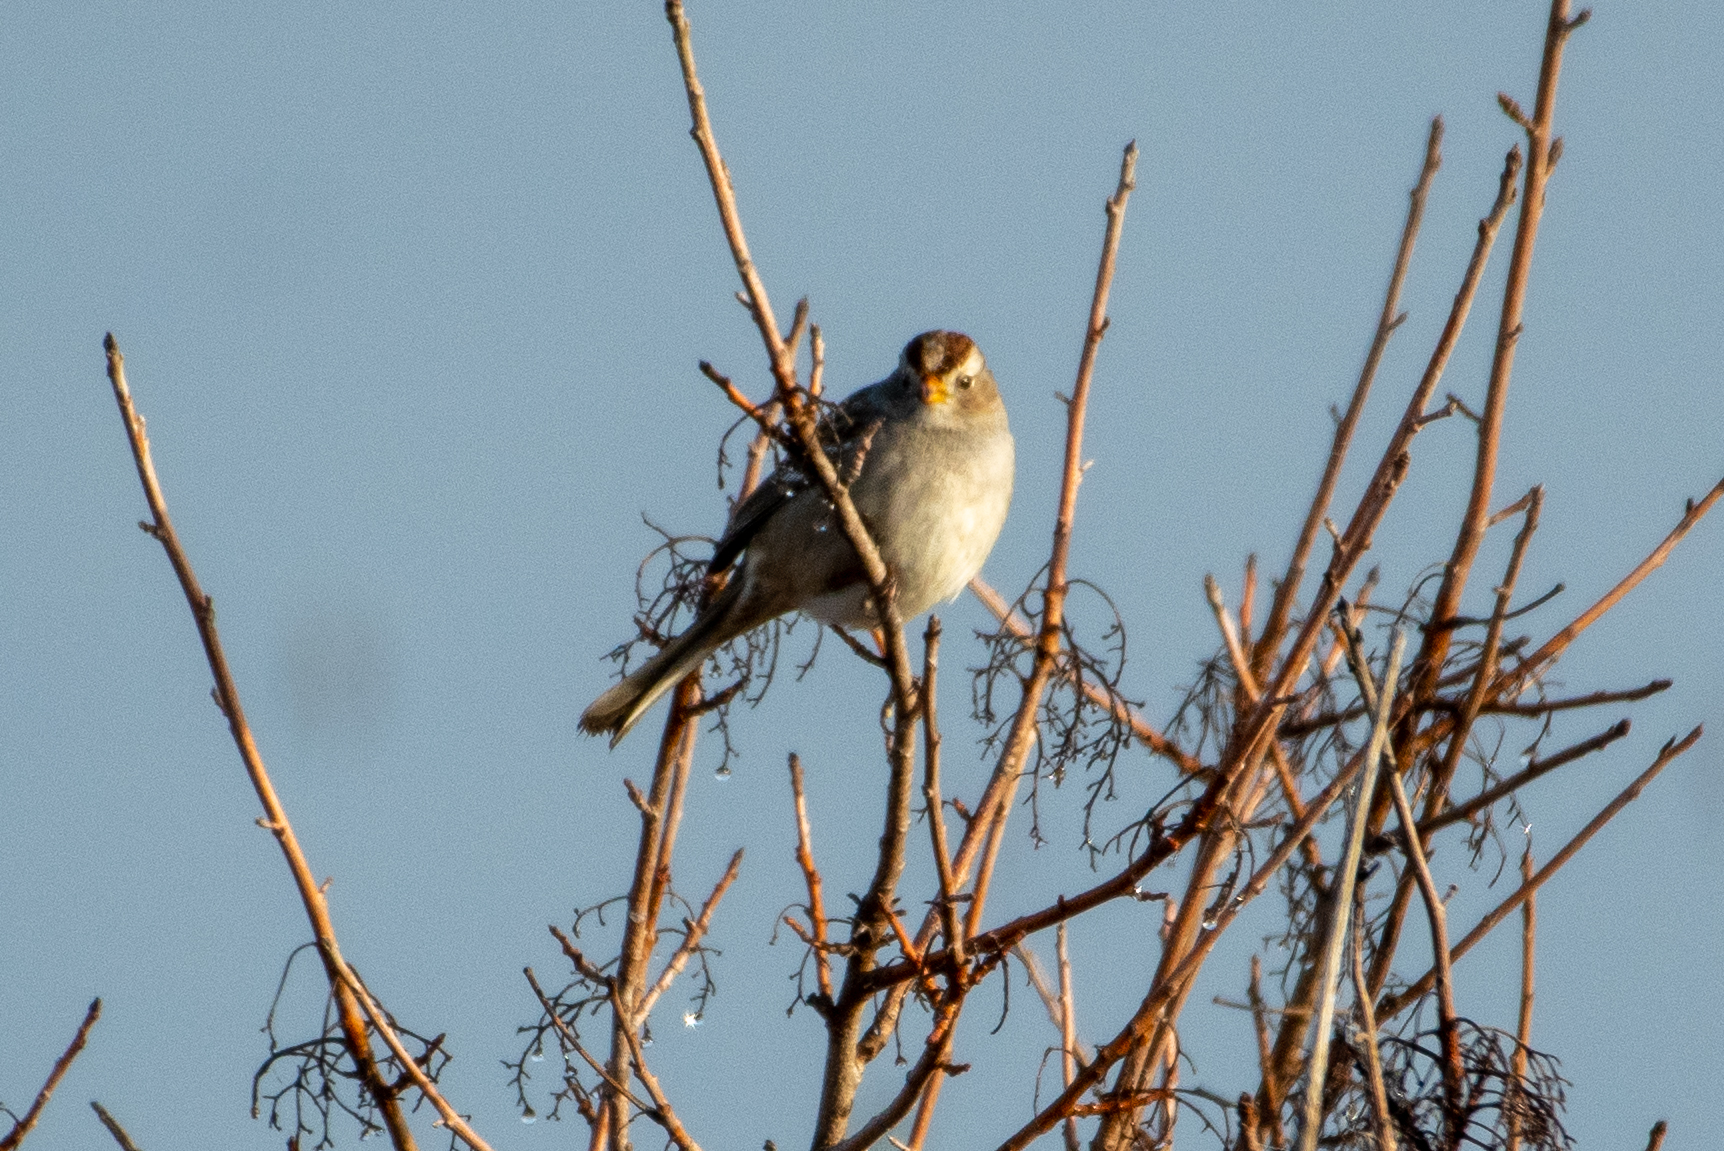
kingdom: Animalia
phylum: Chordata
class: Aves
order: Passeriformes
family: Passerellidae
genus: Zonotrichia
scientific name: Zonotrichia leucophrys
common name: White-crowned sparrow
